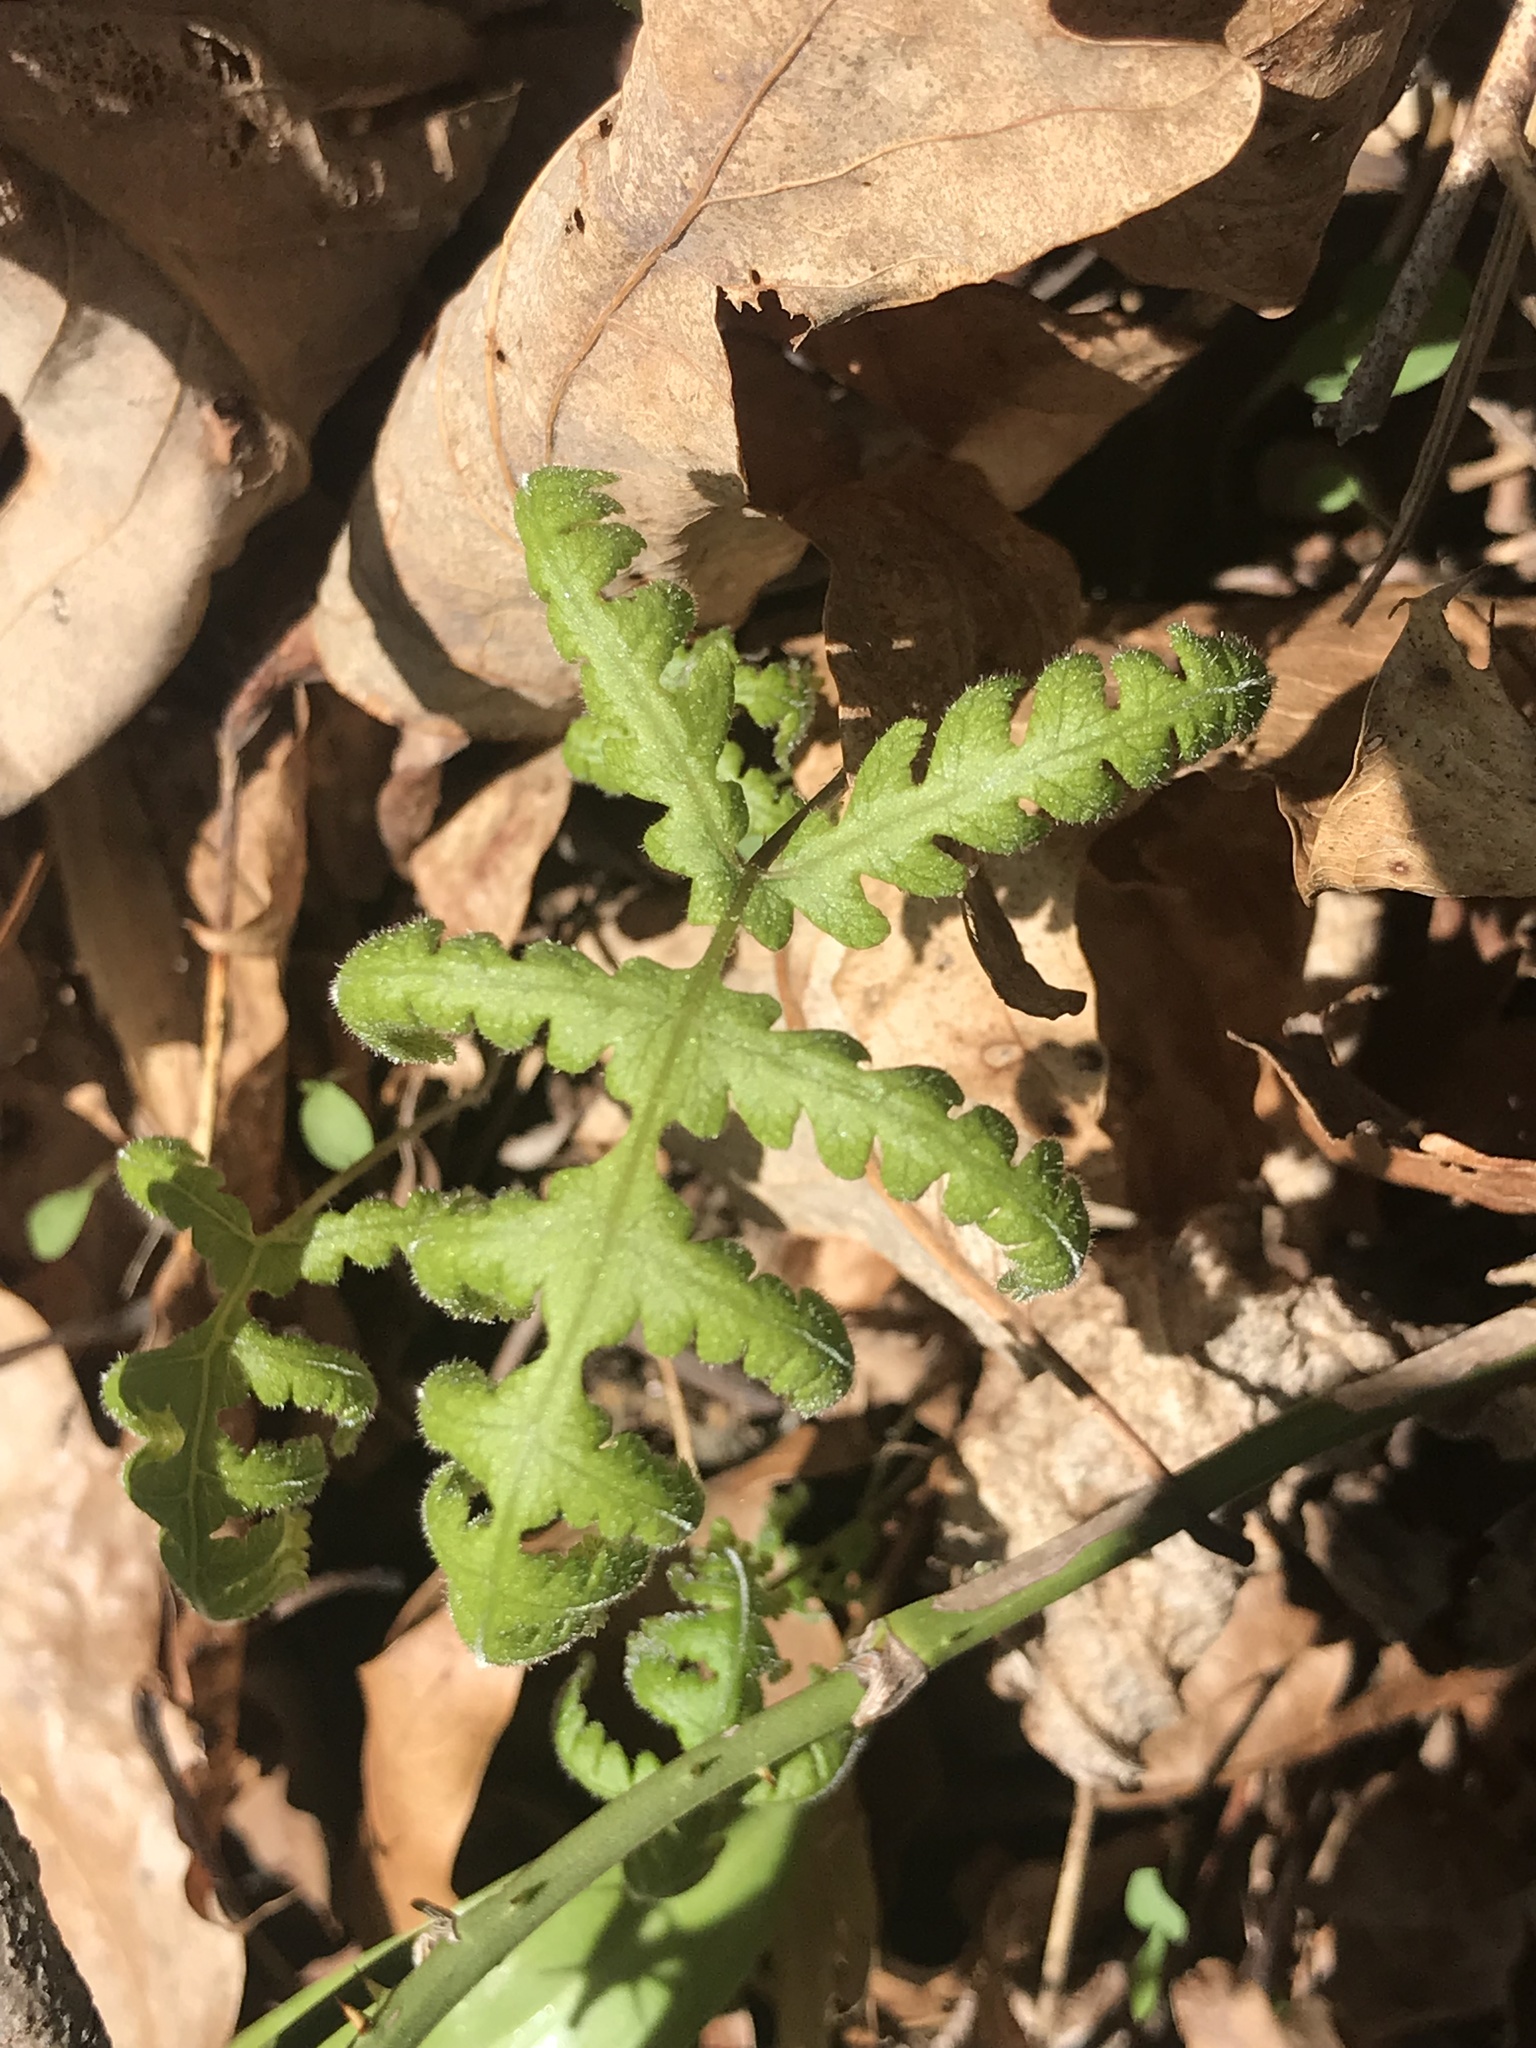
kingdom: Plantae
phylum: Tracheophyta
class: Polypodiopsida
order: Polypodiales
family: Thelypteridaceae
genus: Phegopteris
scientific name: Phegopteris hexagonoptera
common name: Broad beech fern
